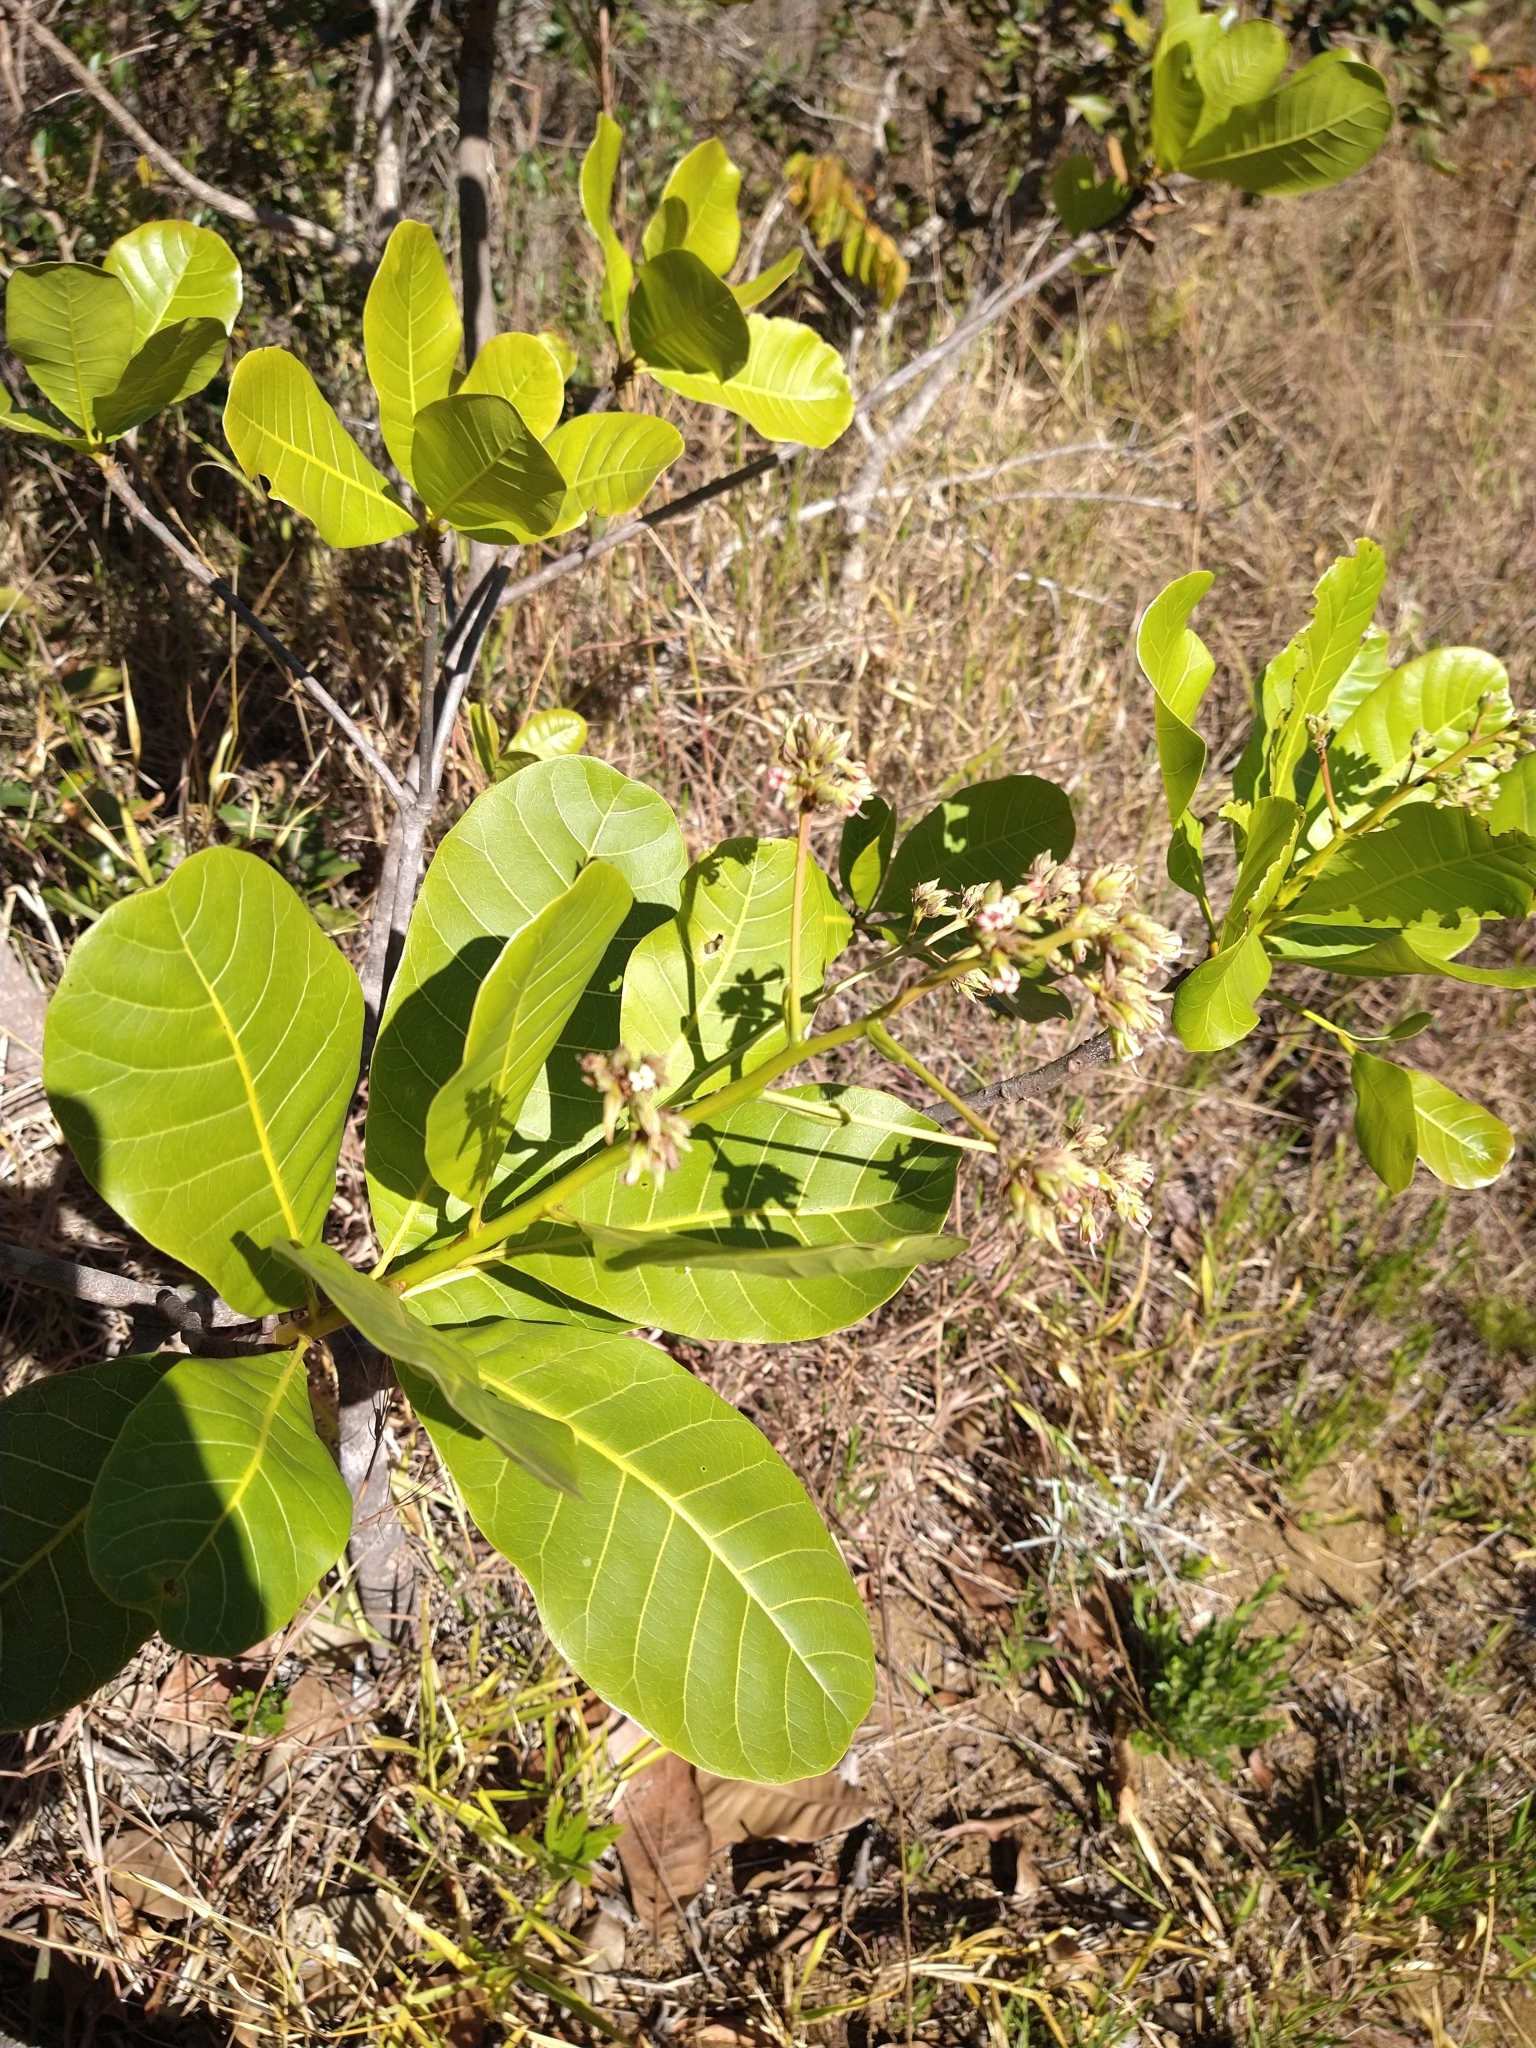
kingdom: Plantae
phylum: Tracheophyta
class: Magnoliopsida
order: Sapindales
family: Anacardiaceae
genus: Anacardium
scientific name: Anacardium humile
